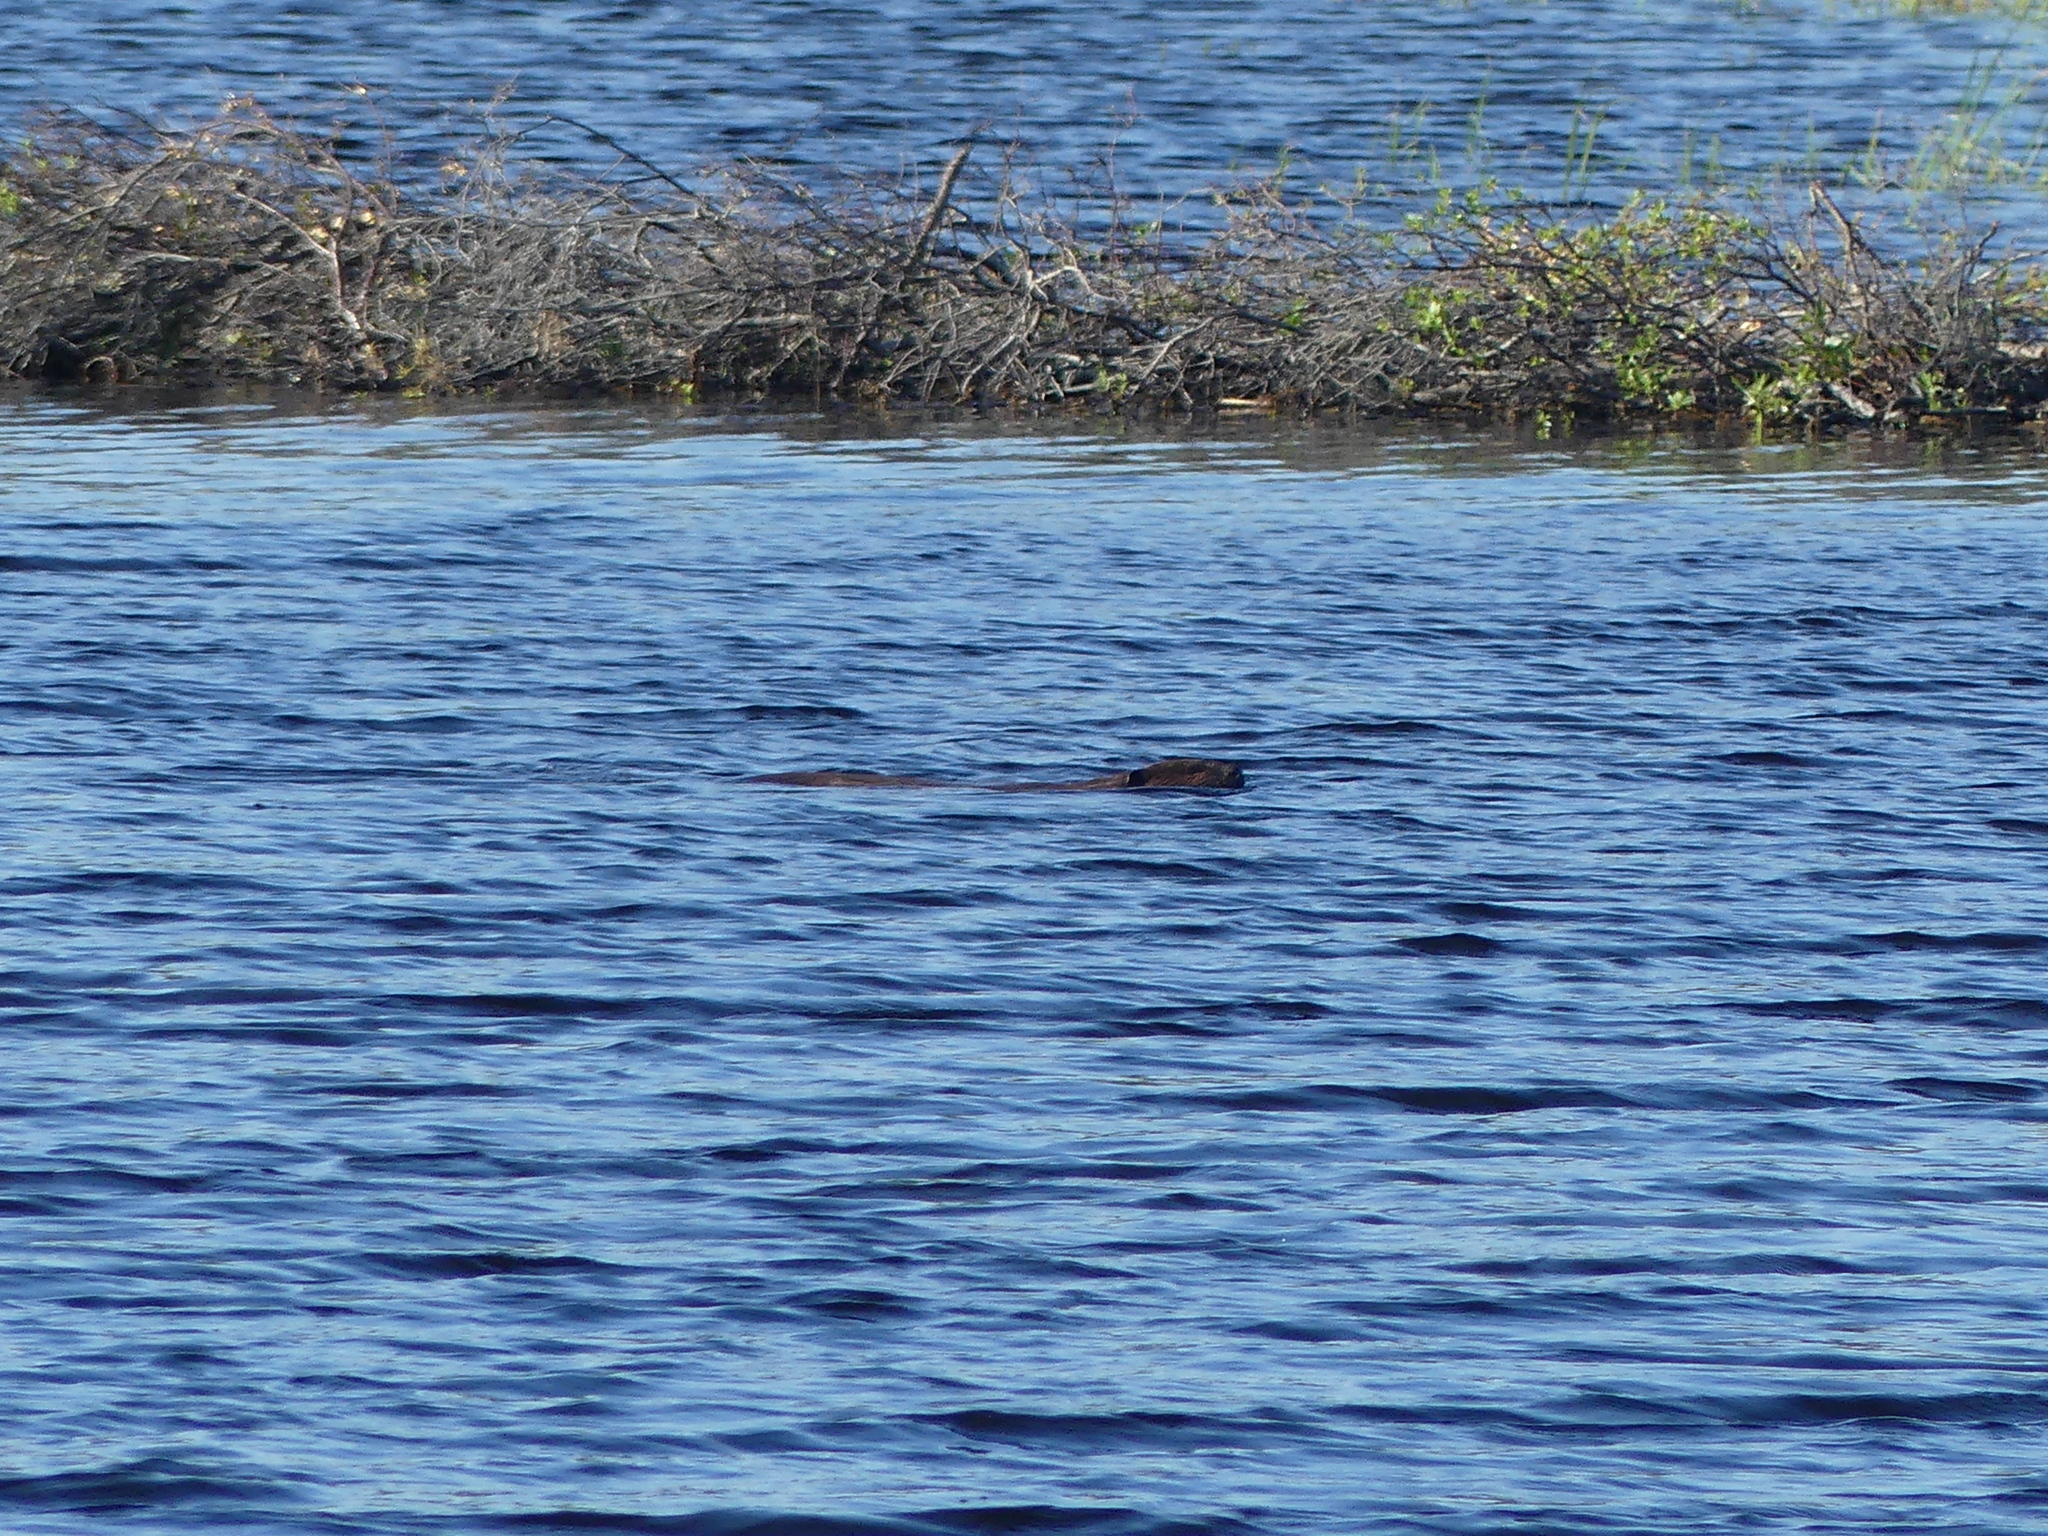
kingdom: Animalia
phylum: Chordata
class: Mammalia
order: Rodentia
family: Castoridae
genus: Castor
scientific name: Castor canadensis
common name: American beaver
